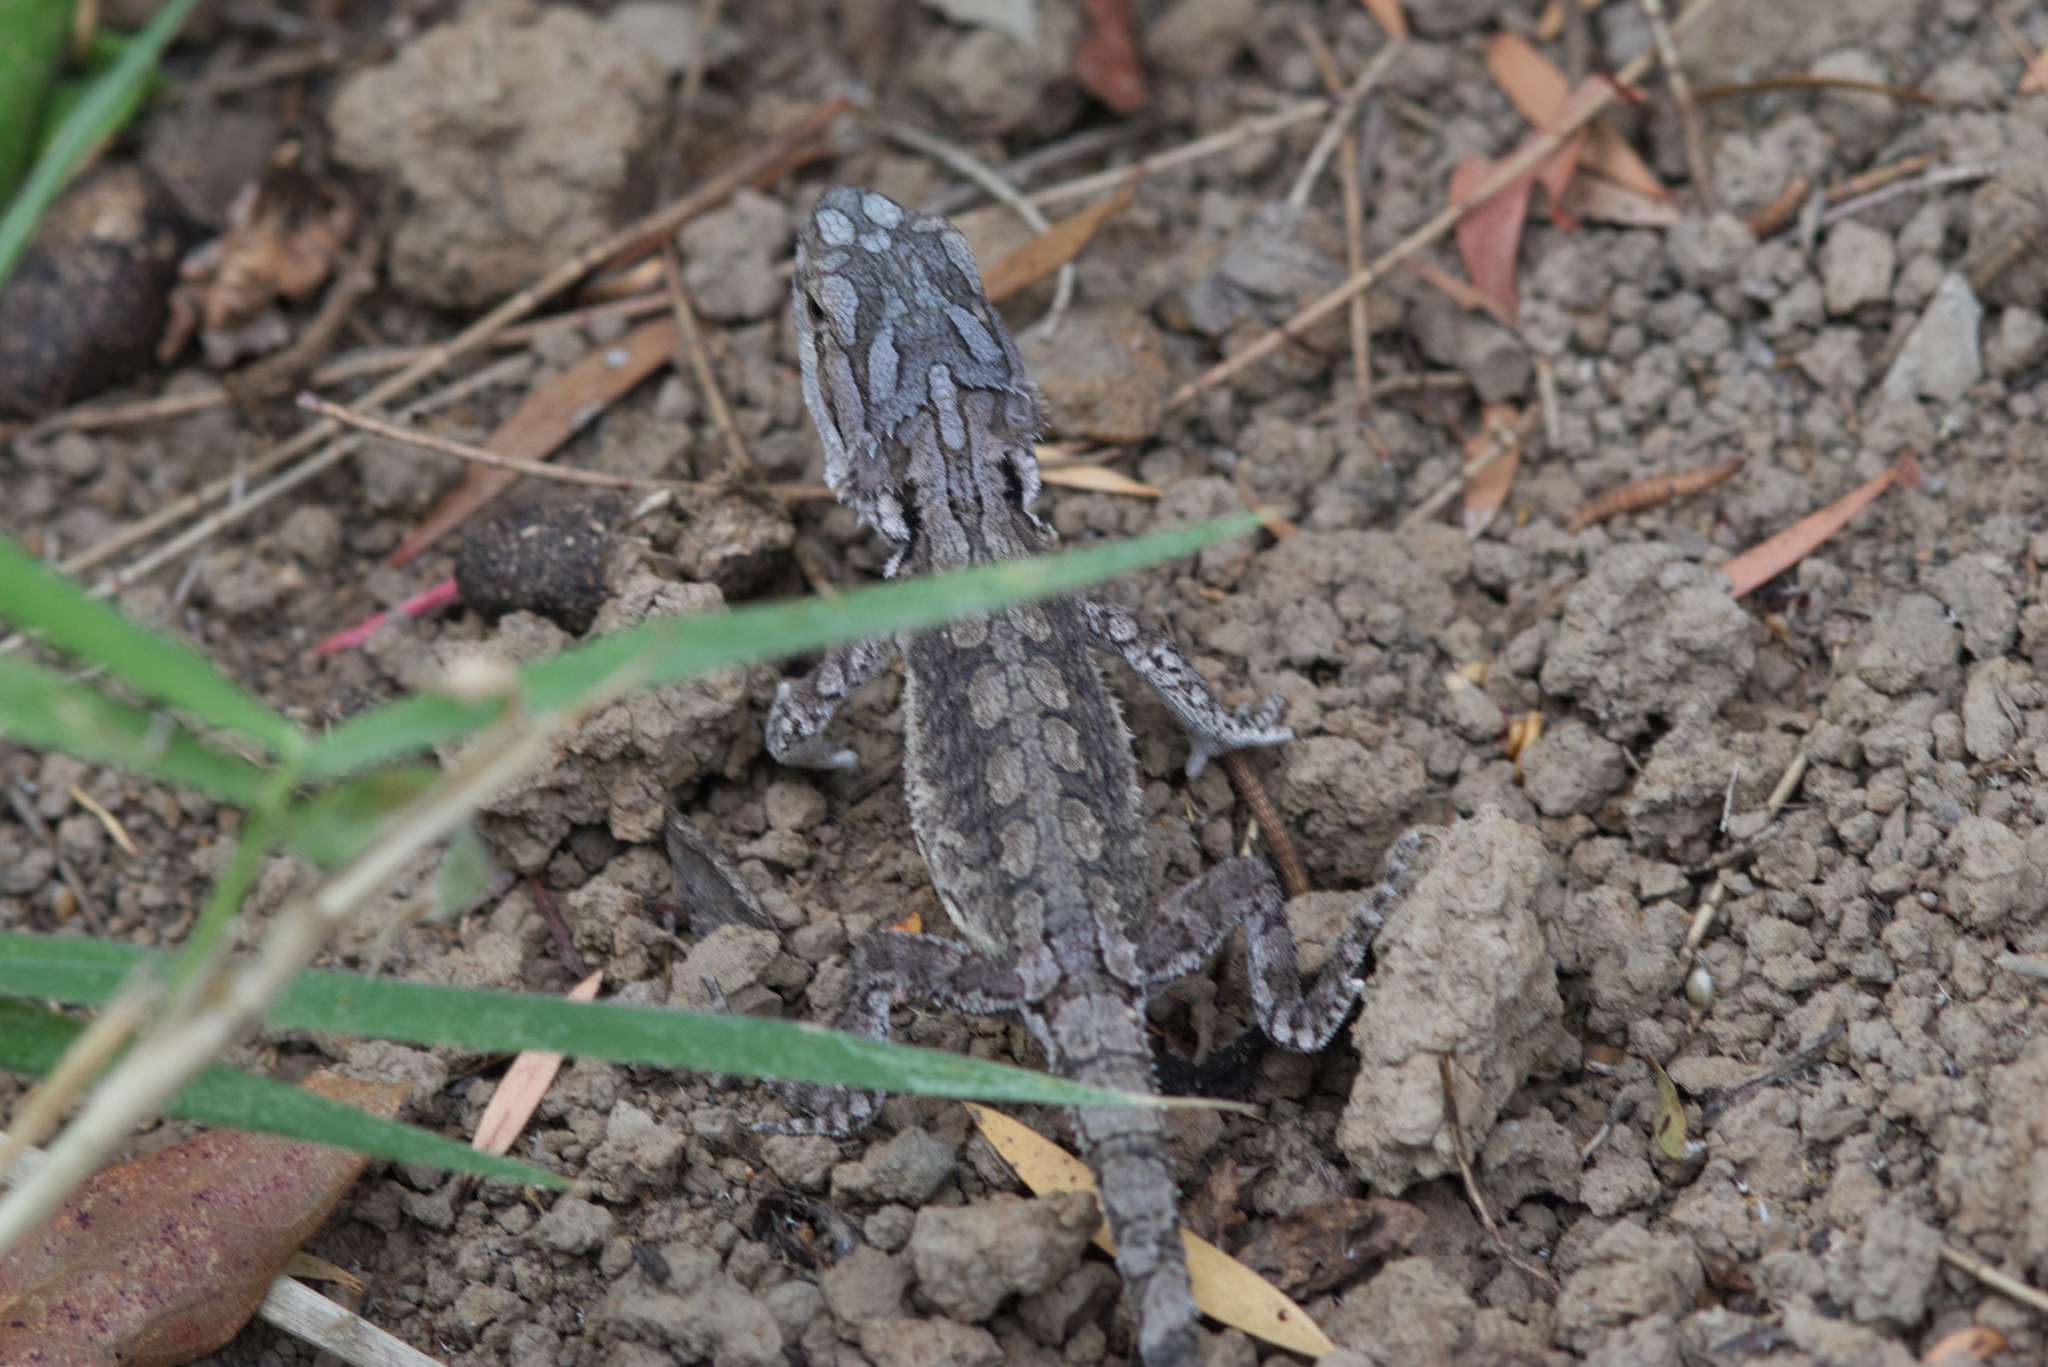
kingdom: Animalia
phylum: Chordata
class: Squamata
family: Agamidae
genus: Pogona
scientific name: Pogona barbata
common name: Bearded dragon
